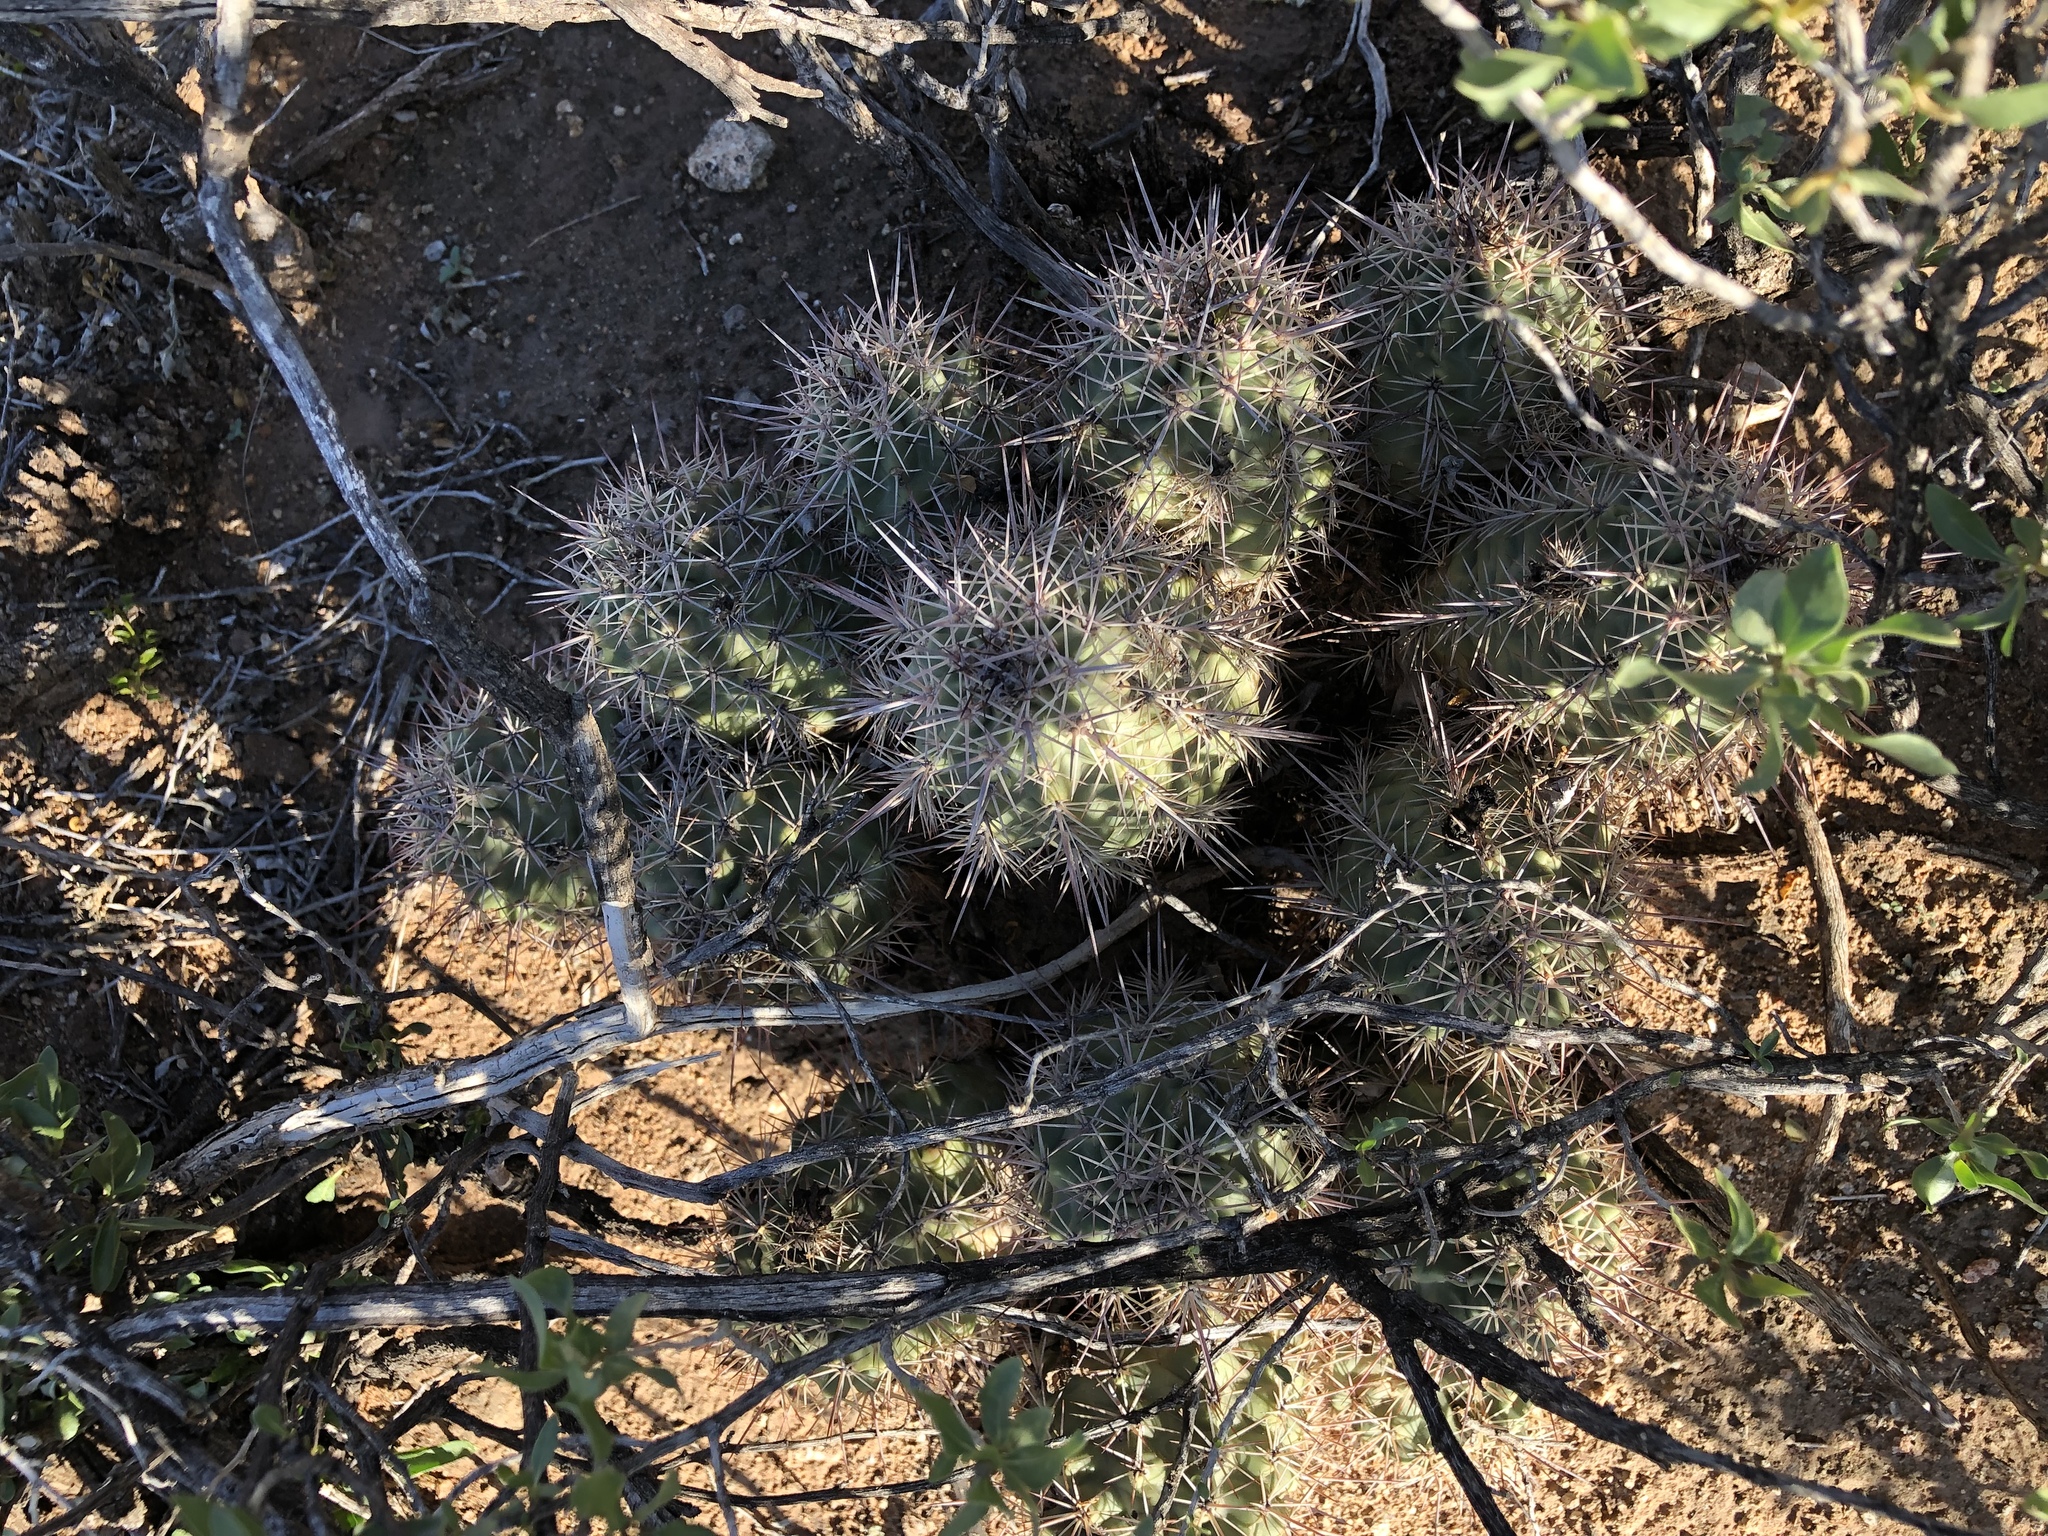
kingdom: Plantae
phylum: Tracheophyta
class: Magnoliopsida
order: Caryophyllales
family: Cactaceae
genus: Echinocereus
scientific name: Echinocereus coccineus
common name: Scarlet hedgehog cactus
